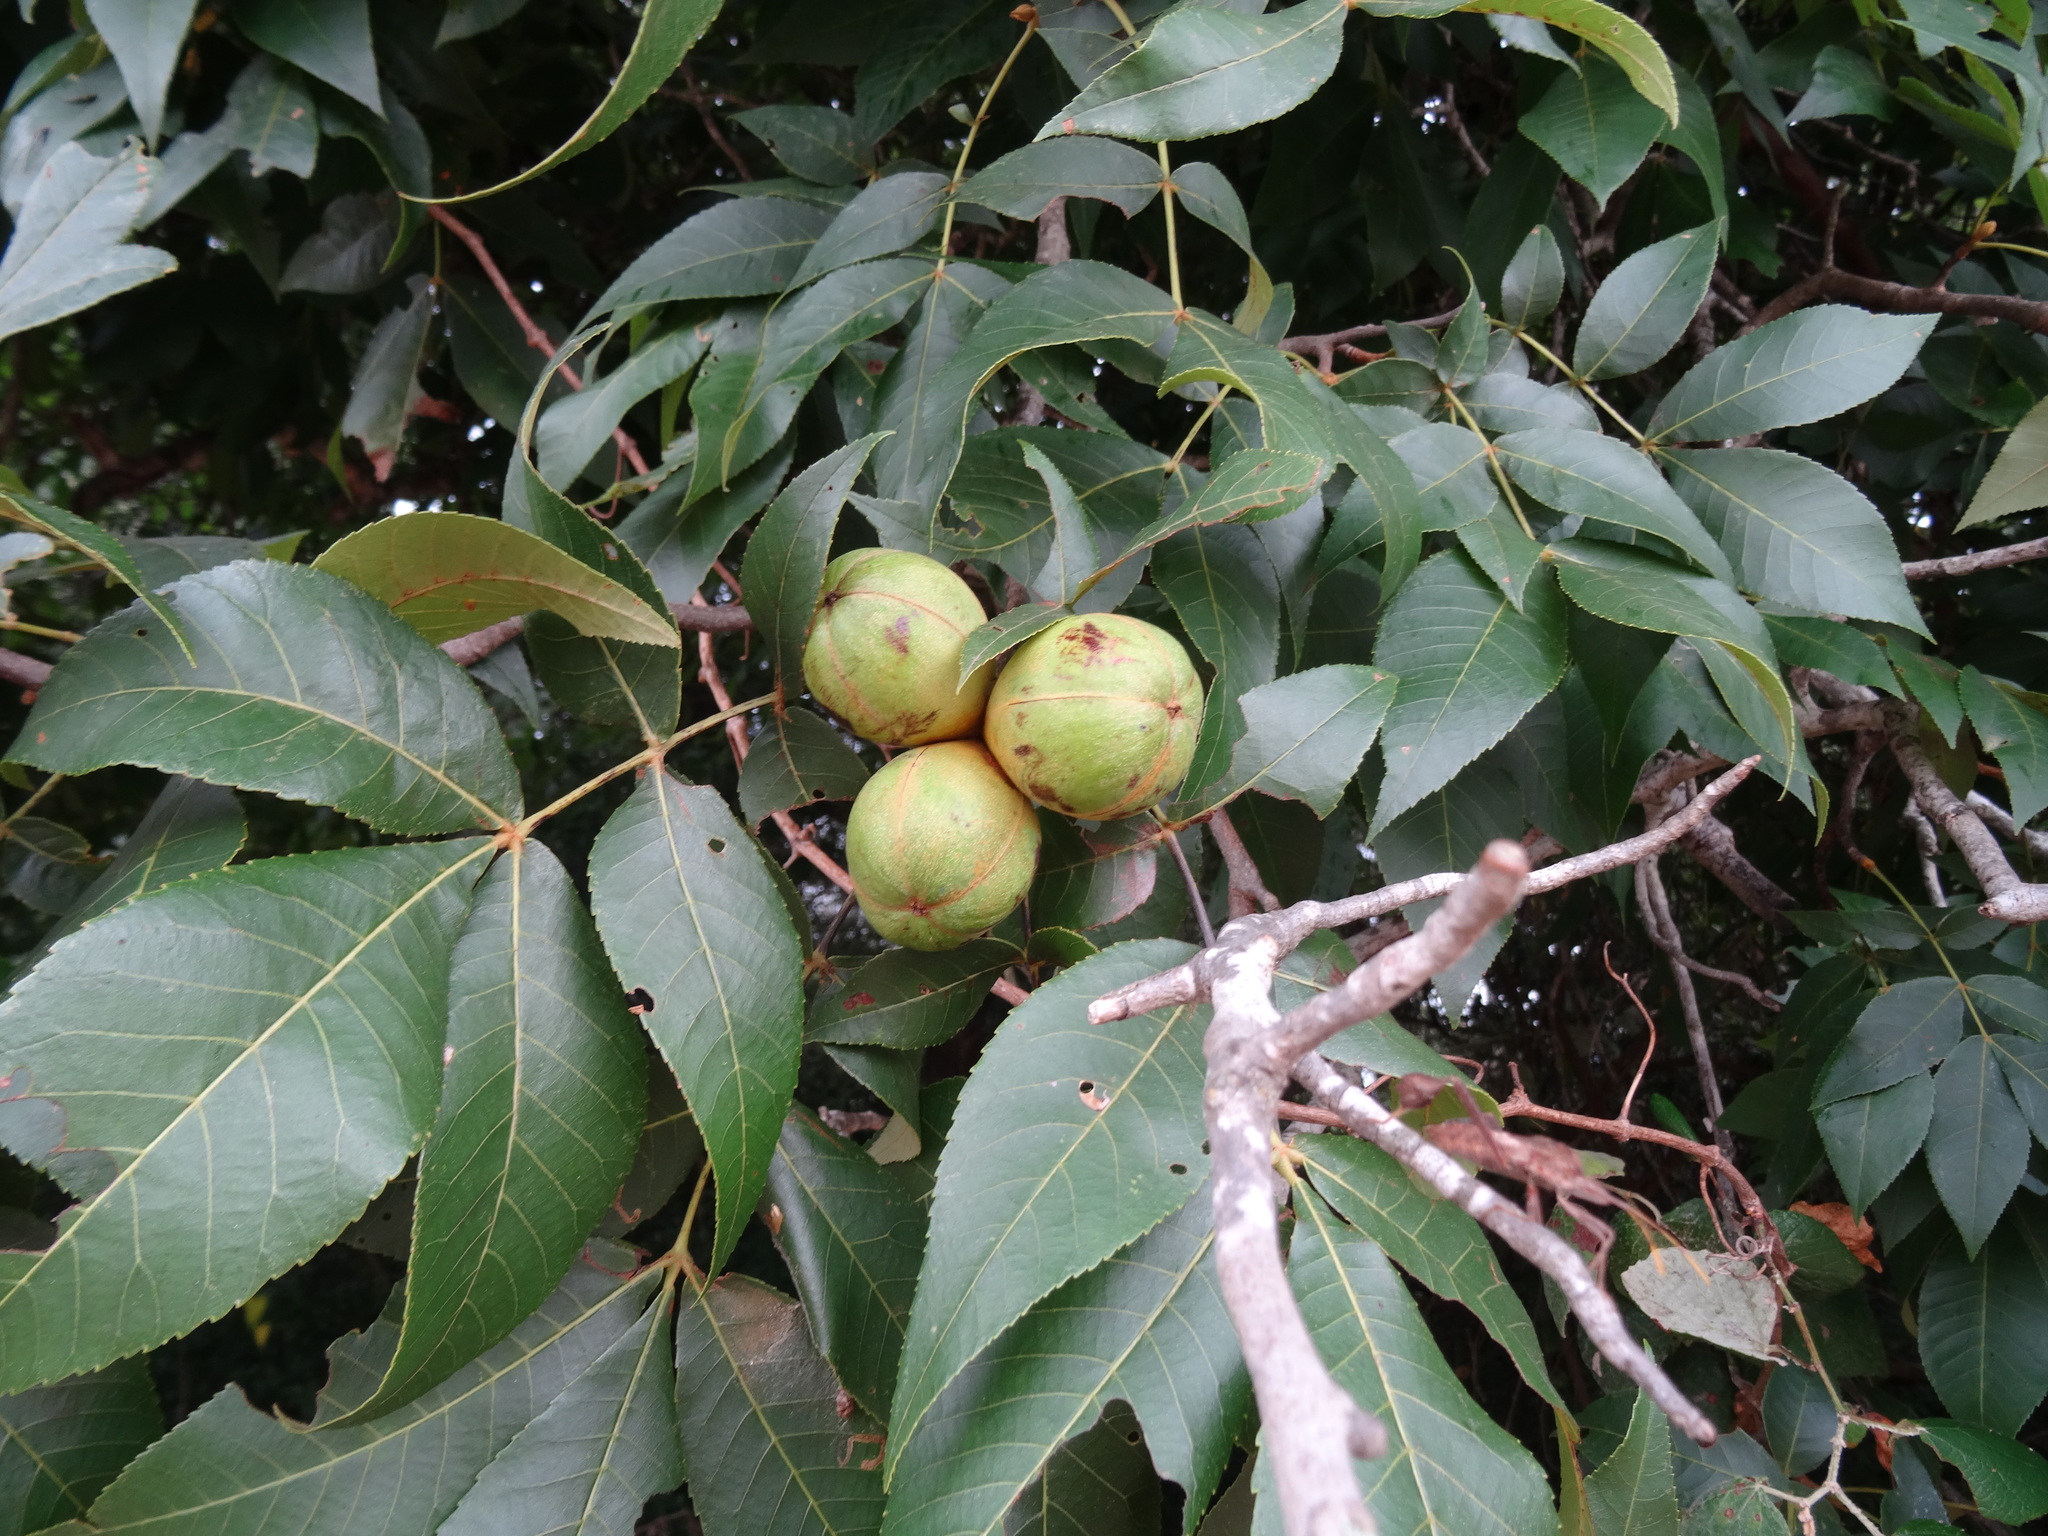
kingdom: Plantae
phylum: Tracheophyta
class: Magnoliopsida
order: Fagales
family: Juglandaceae
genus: Carya
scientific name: Carya texana
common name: Black hickory
